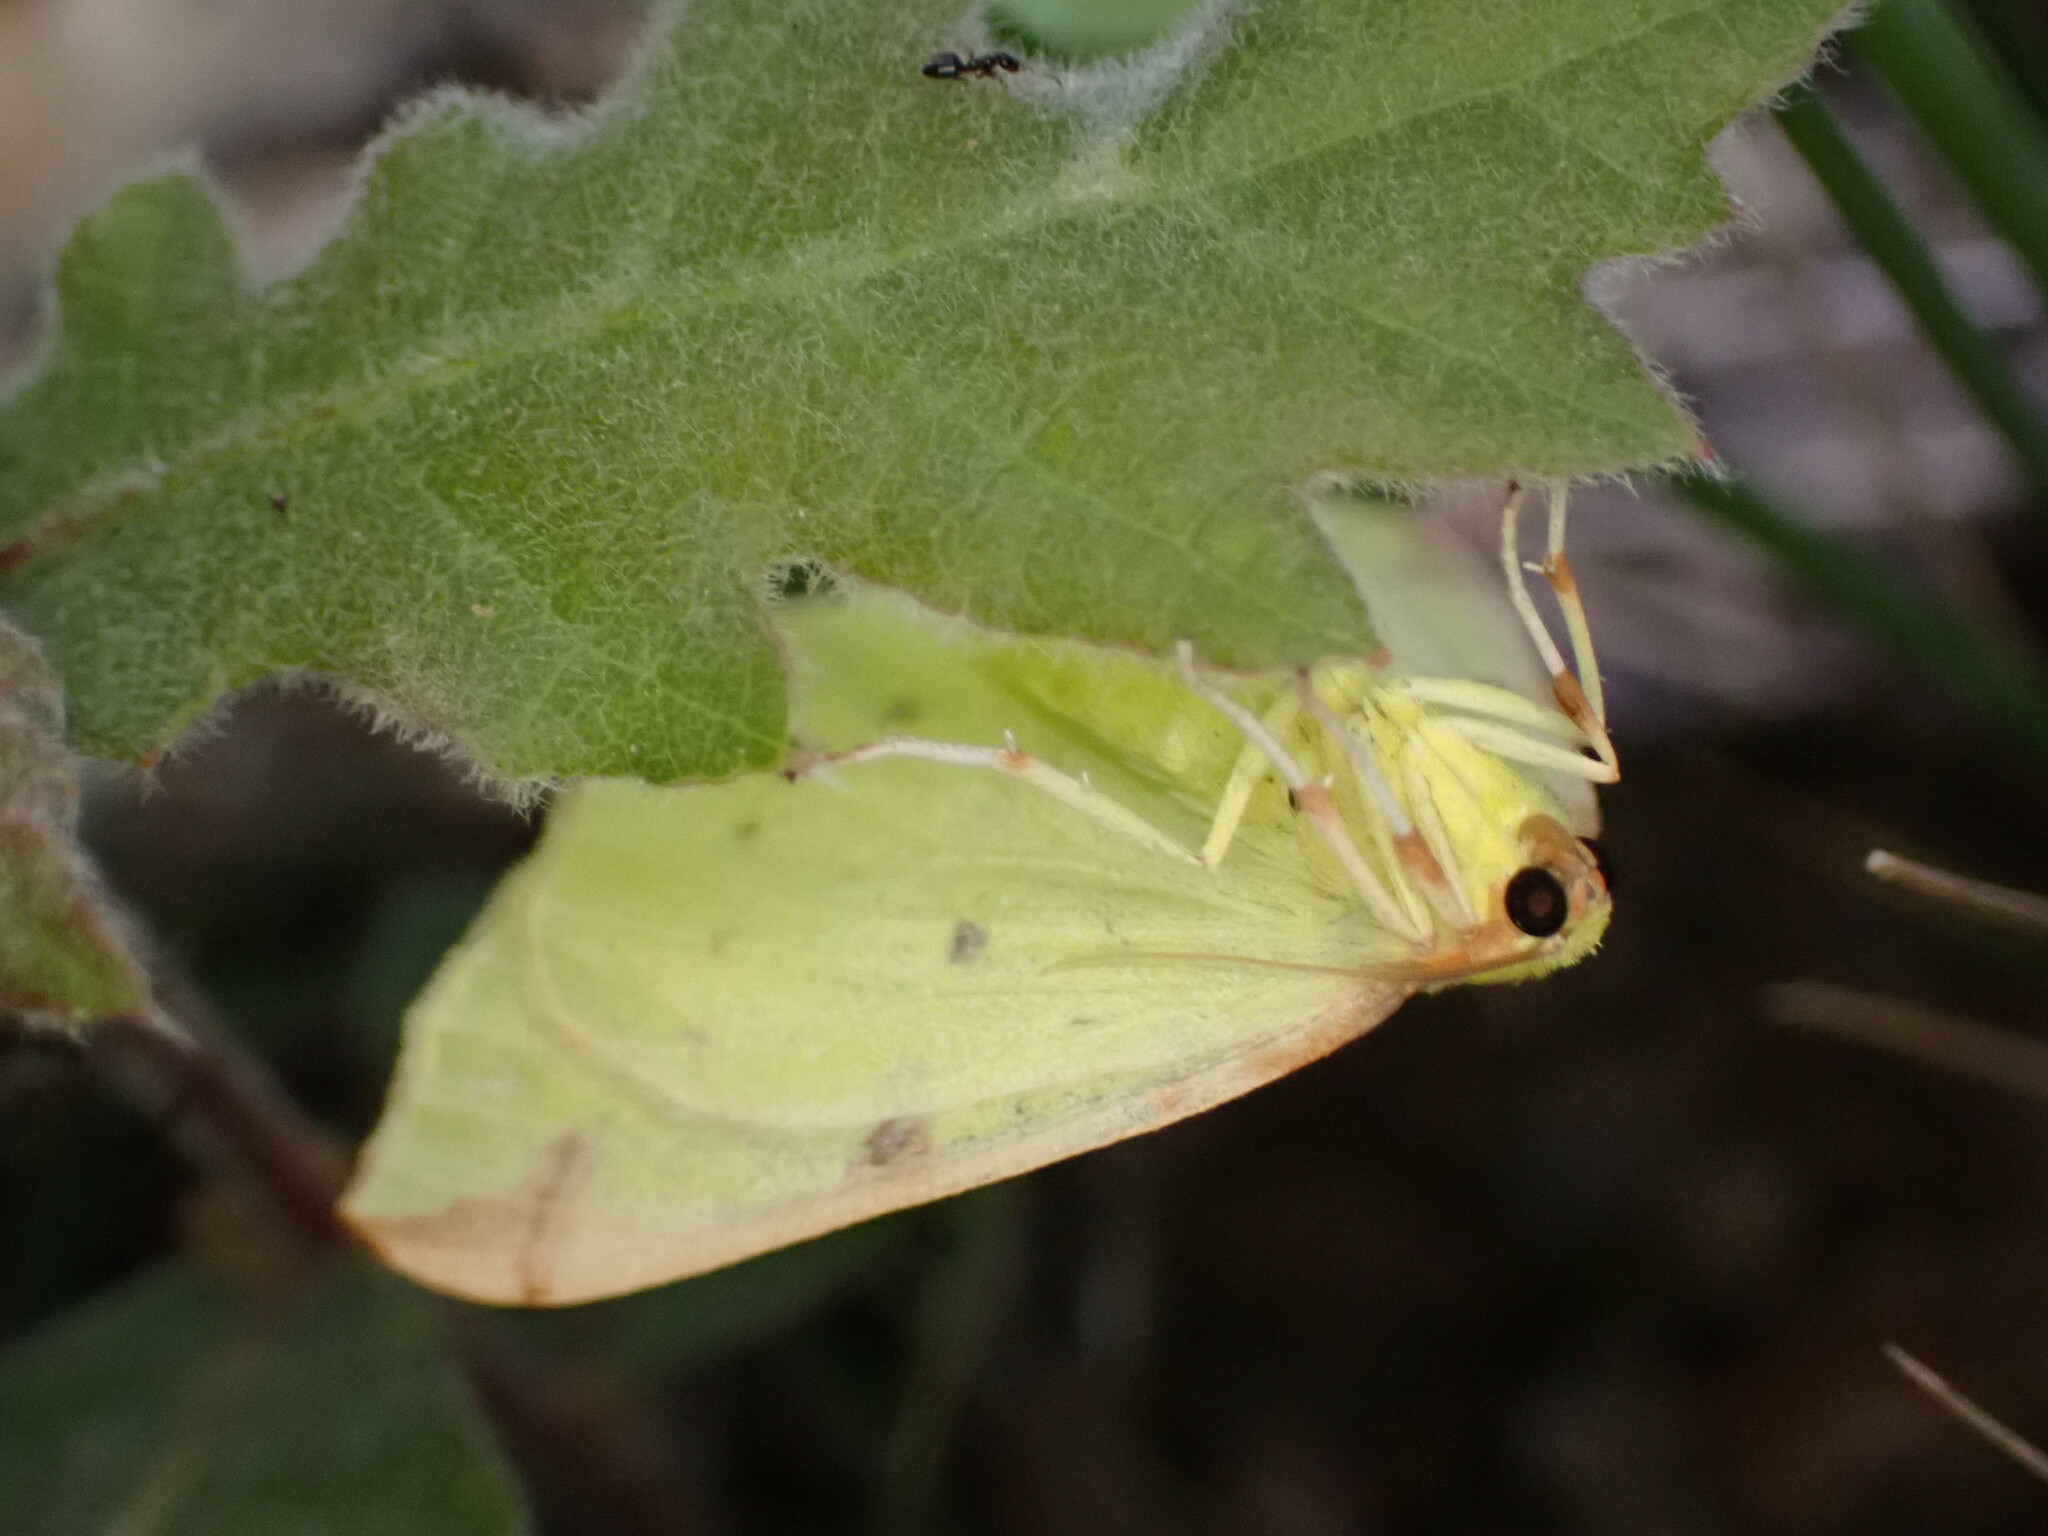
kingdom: Animalia
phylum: Arthropoda
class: Insecta
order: Lepidoptera
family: Geometridae
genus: Opisthograptis
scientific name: Opisthograptis luteolata
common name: Brimstone moth
